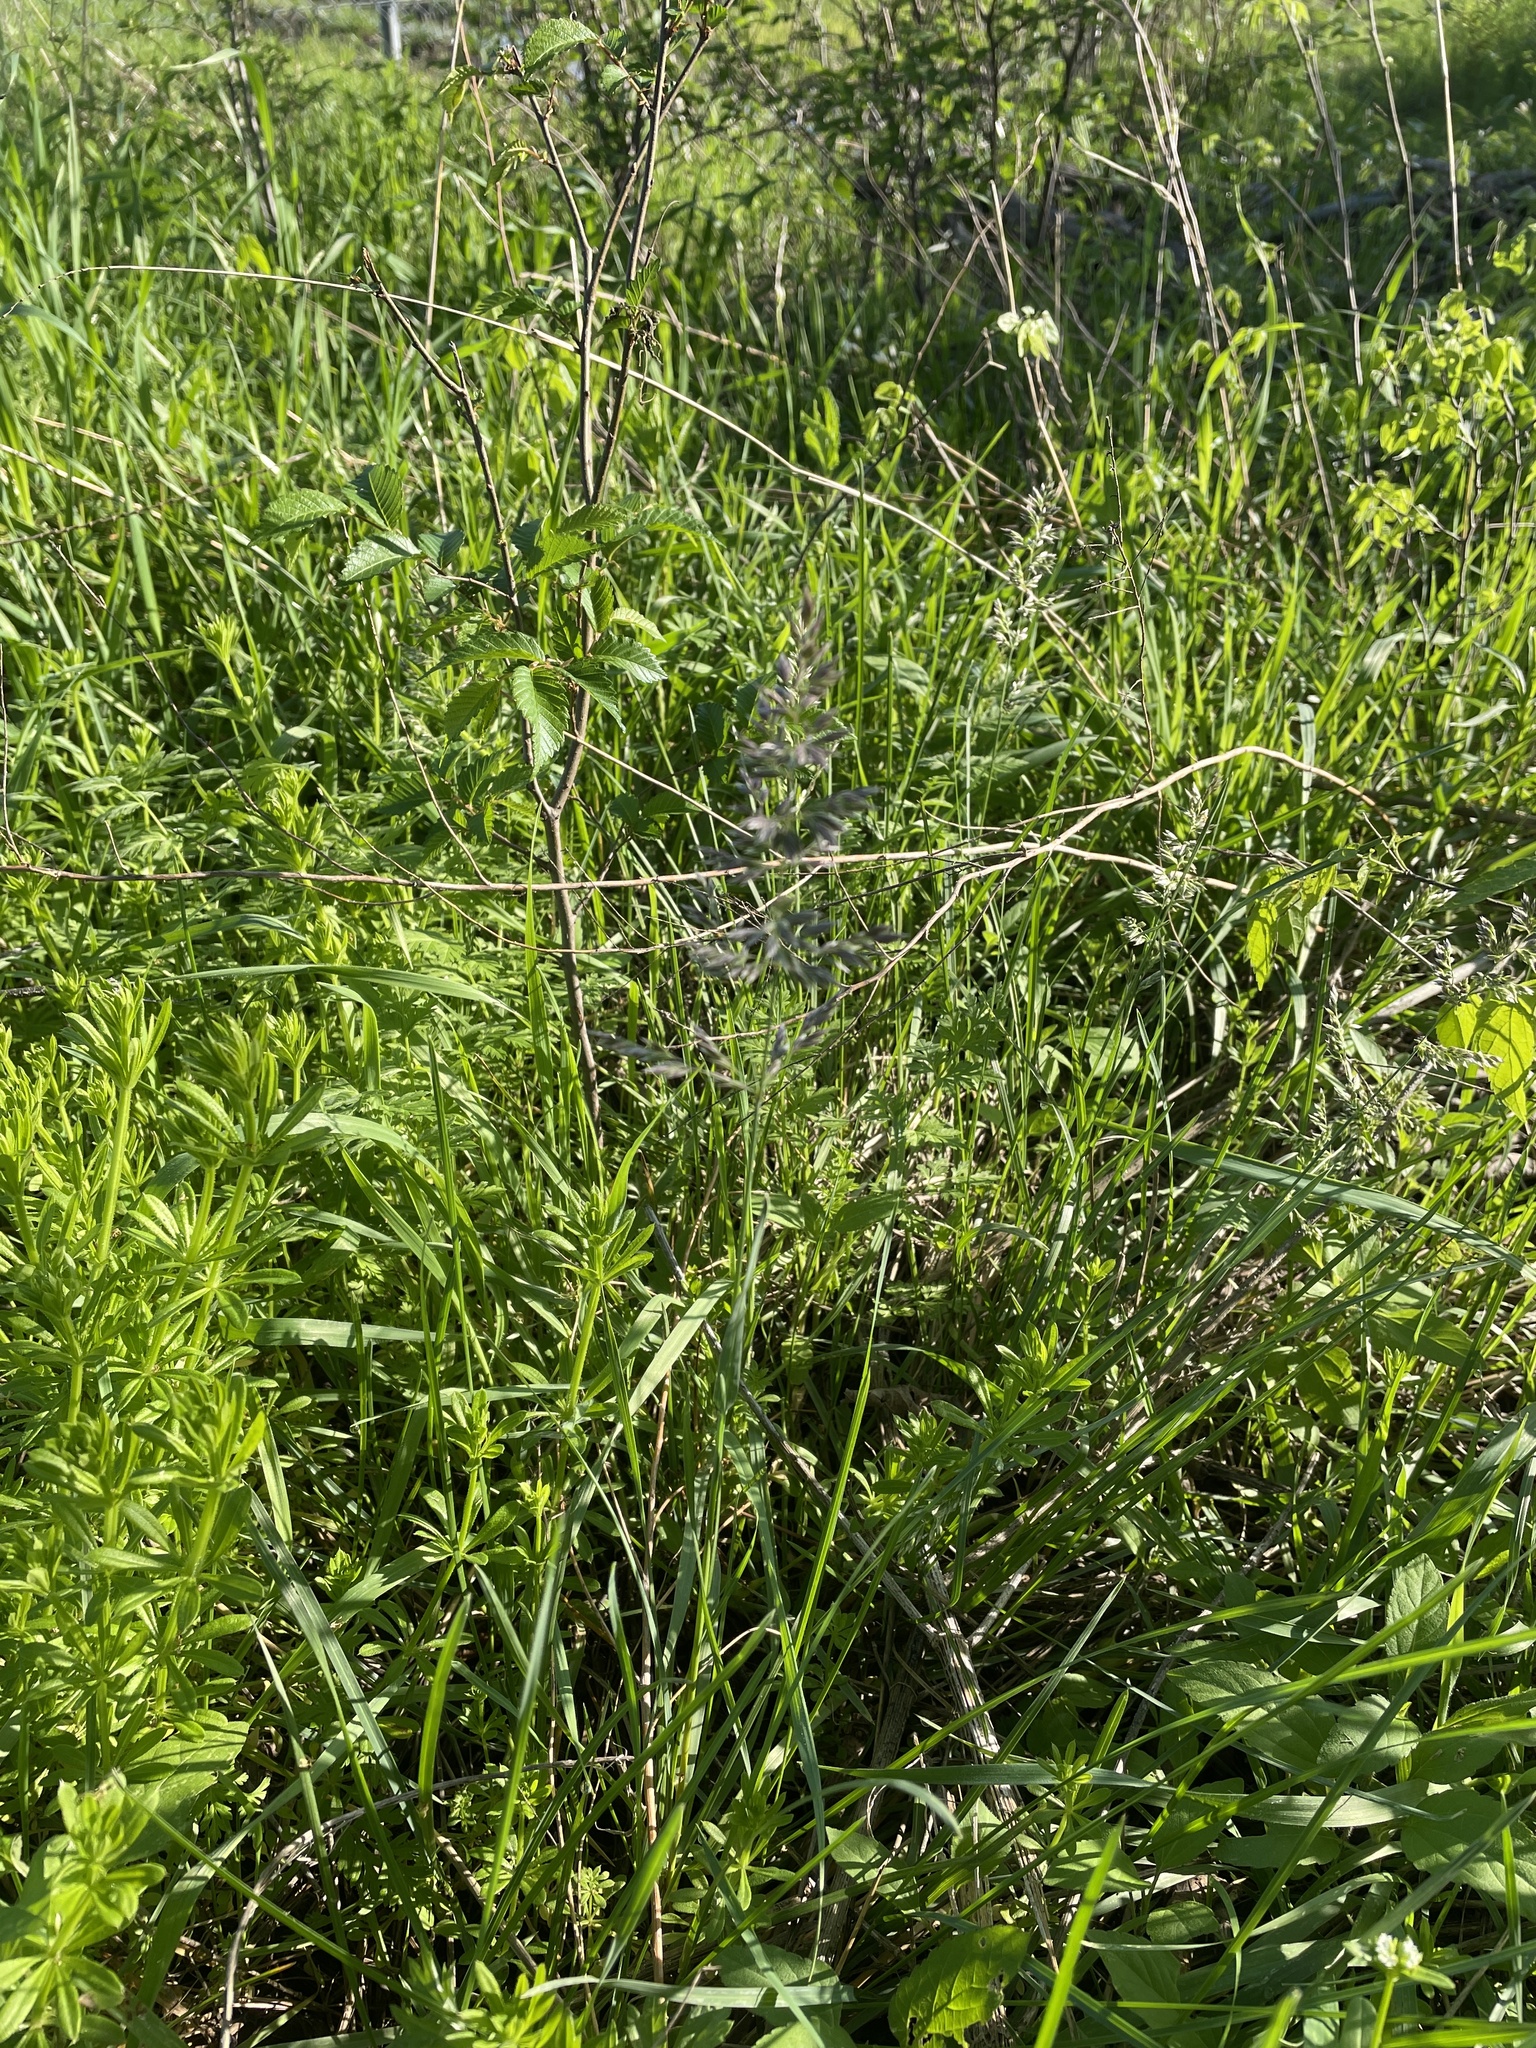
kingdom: Plantae
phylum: Tracheophyta
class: Liliopsida
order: Poales
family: Poaceae
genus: Poa
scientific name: Poa arachnifera
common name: Texas bluegrass
